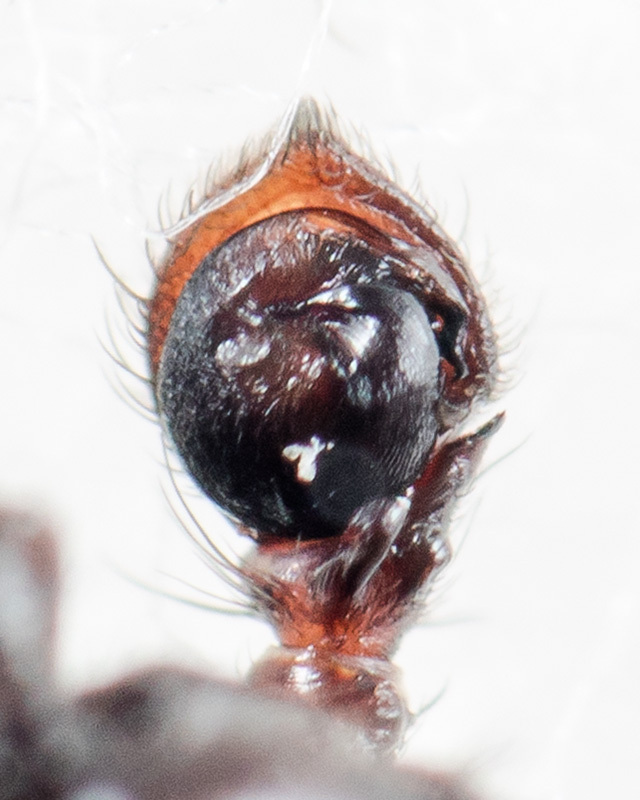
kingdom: Animalia
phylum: Arthropoda
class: Arachnida
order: Araneae
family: Thomisidae
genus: Xysticus
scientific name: Xysticus kaznakovi
